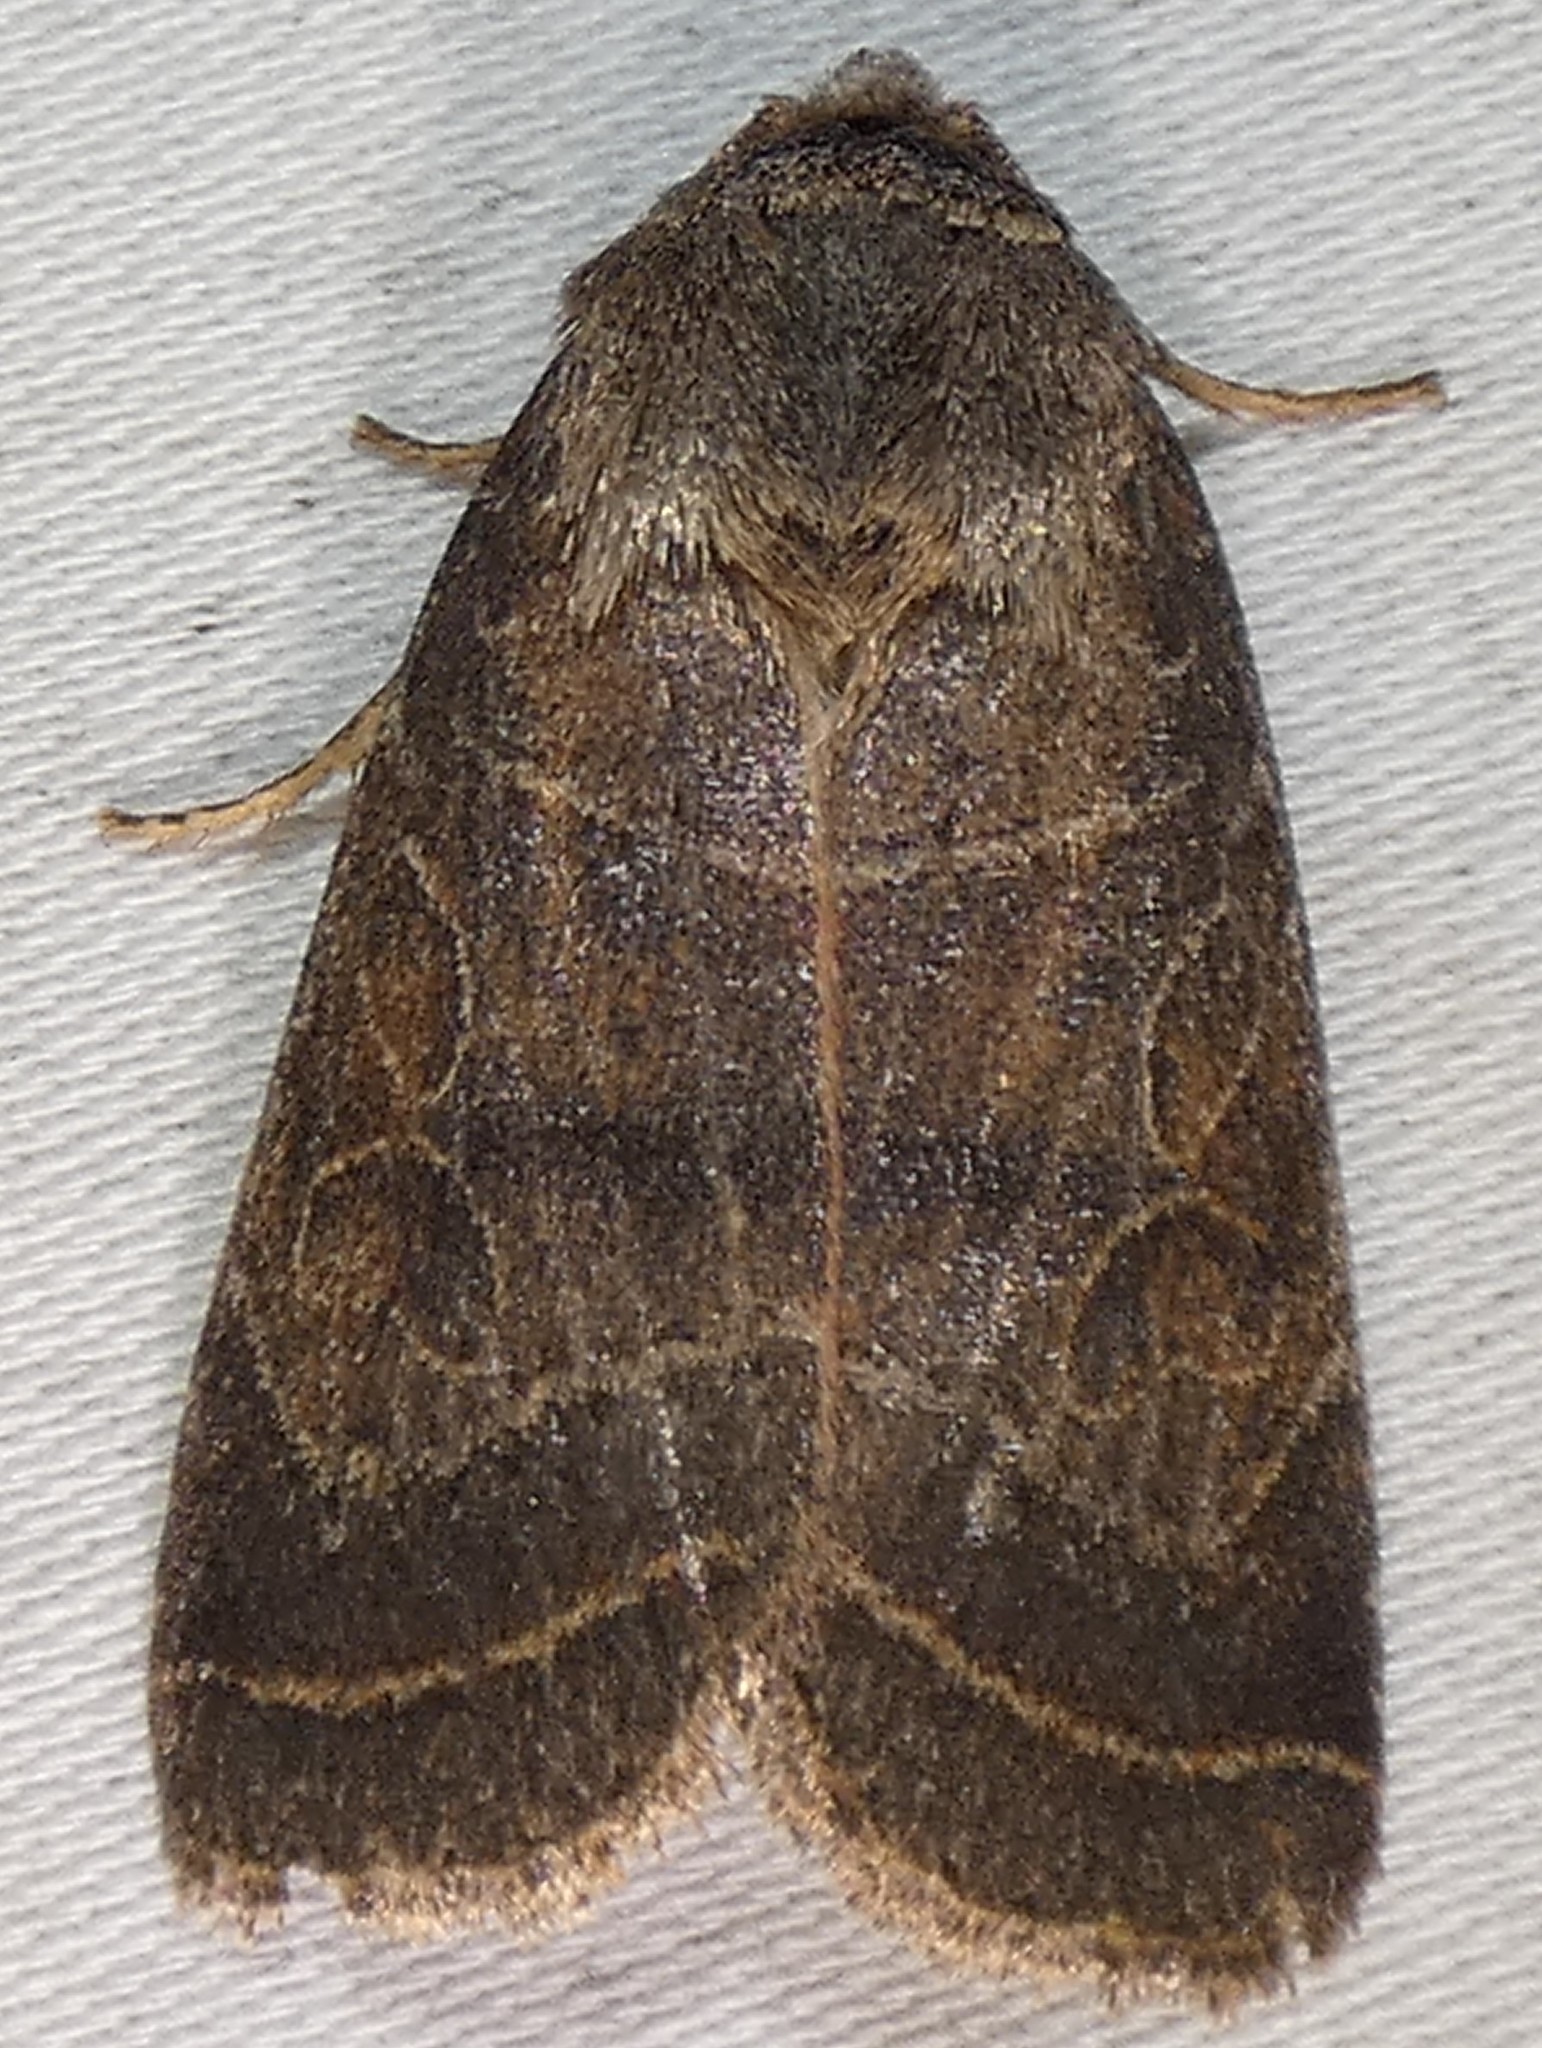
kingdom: Animalia
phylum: Arthropoda
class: Insecta
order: Lepidoptera
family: Noctuidae
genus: Orthodes
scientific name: Orthodes majuscula
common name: Rustic quaker
